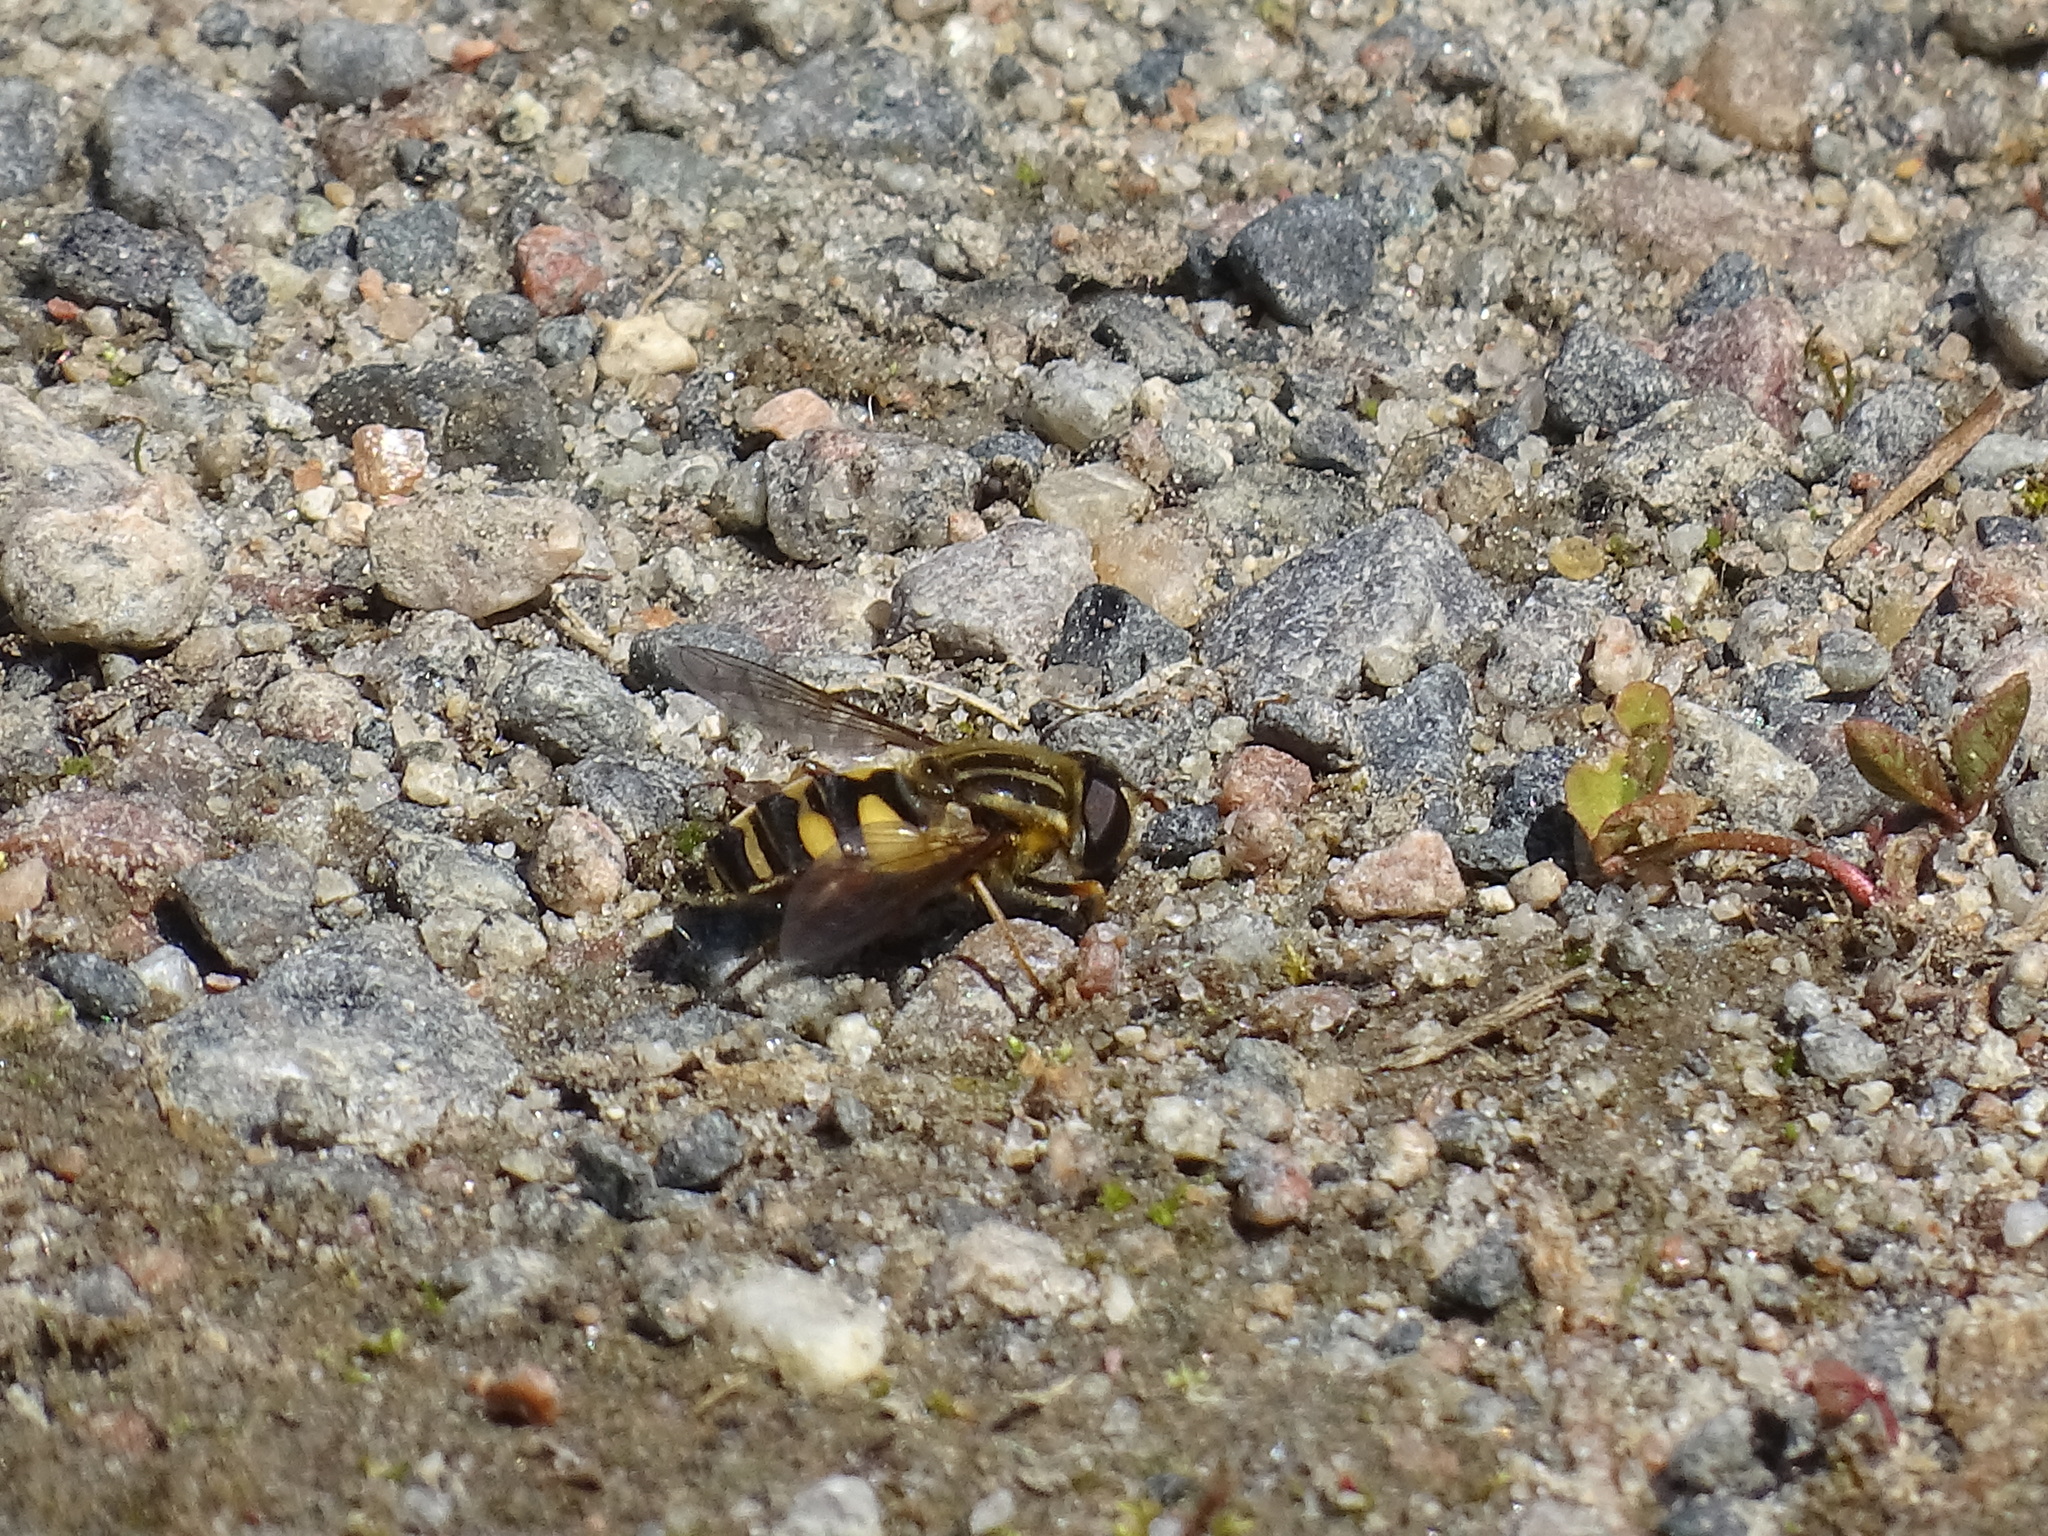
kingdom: Animalia
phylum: Arthropoda
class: Insecta
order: Diptera
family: Syrphidae
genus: Helophilus
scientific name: Helophilus fasciatus
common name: Narrow-headed marsh fly
